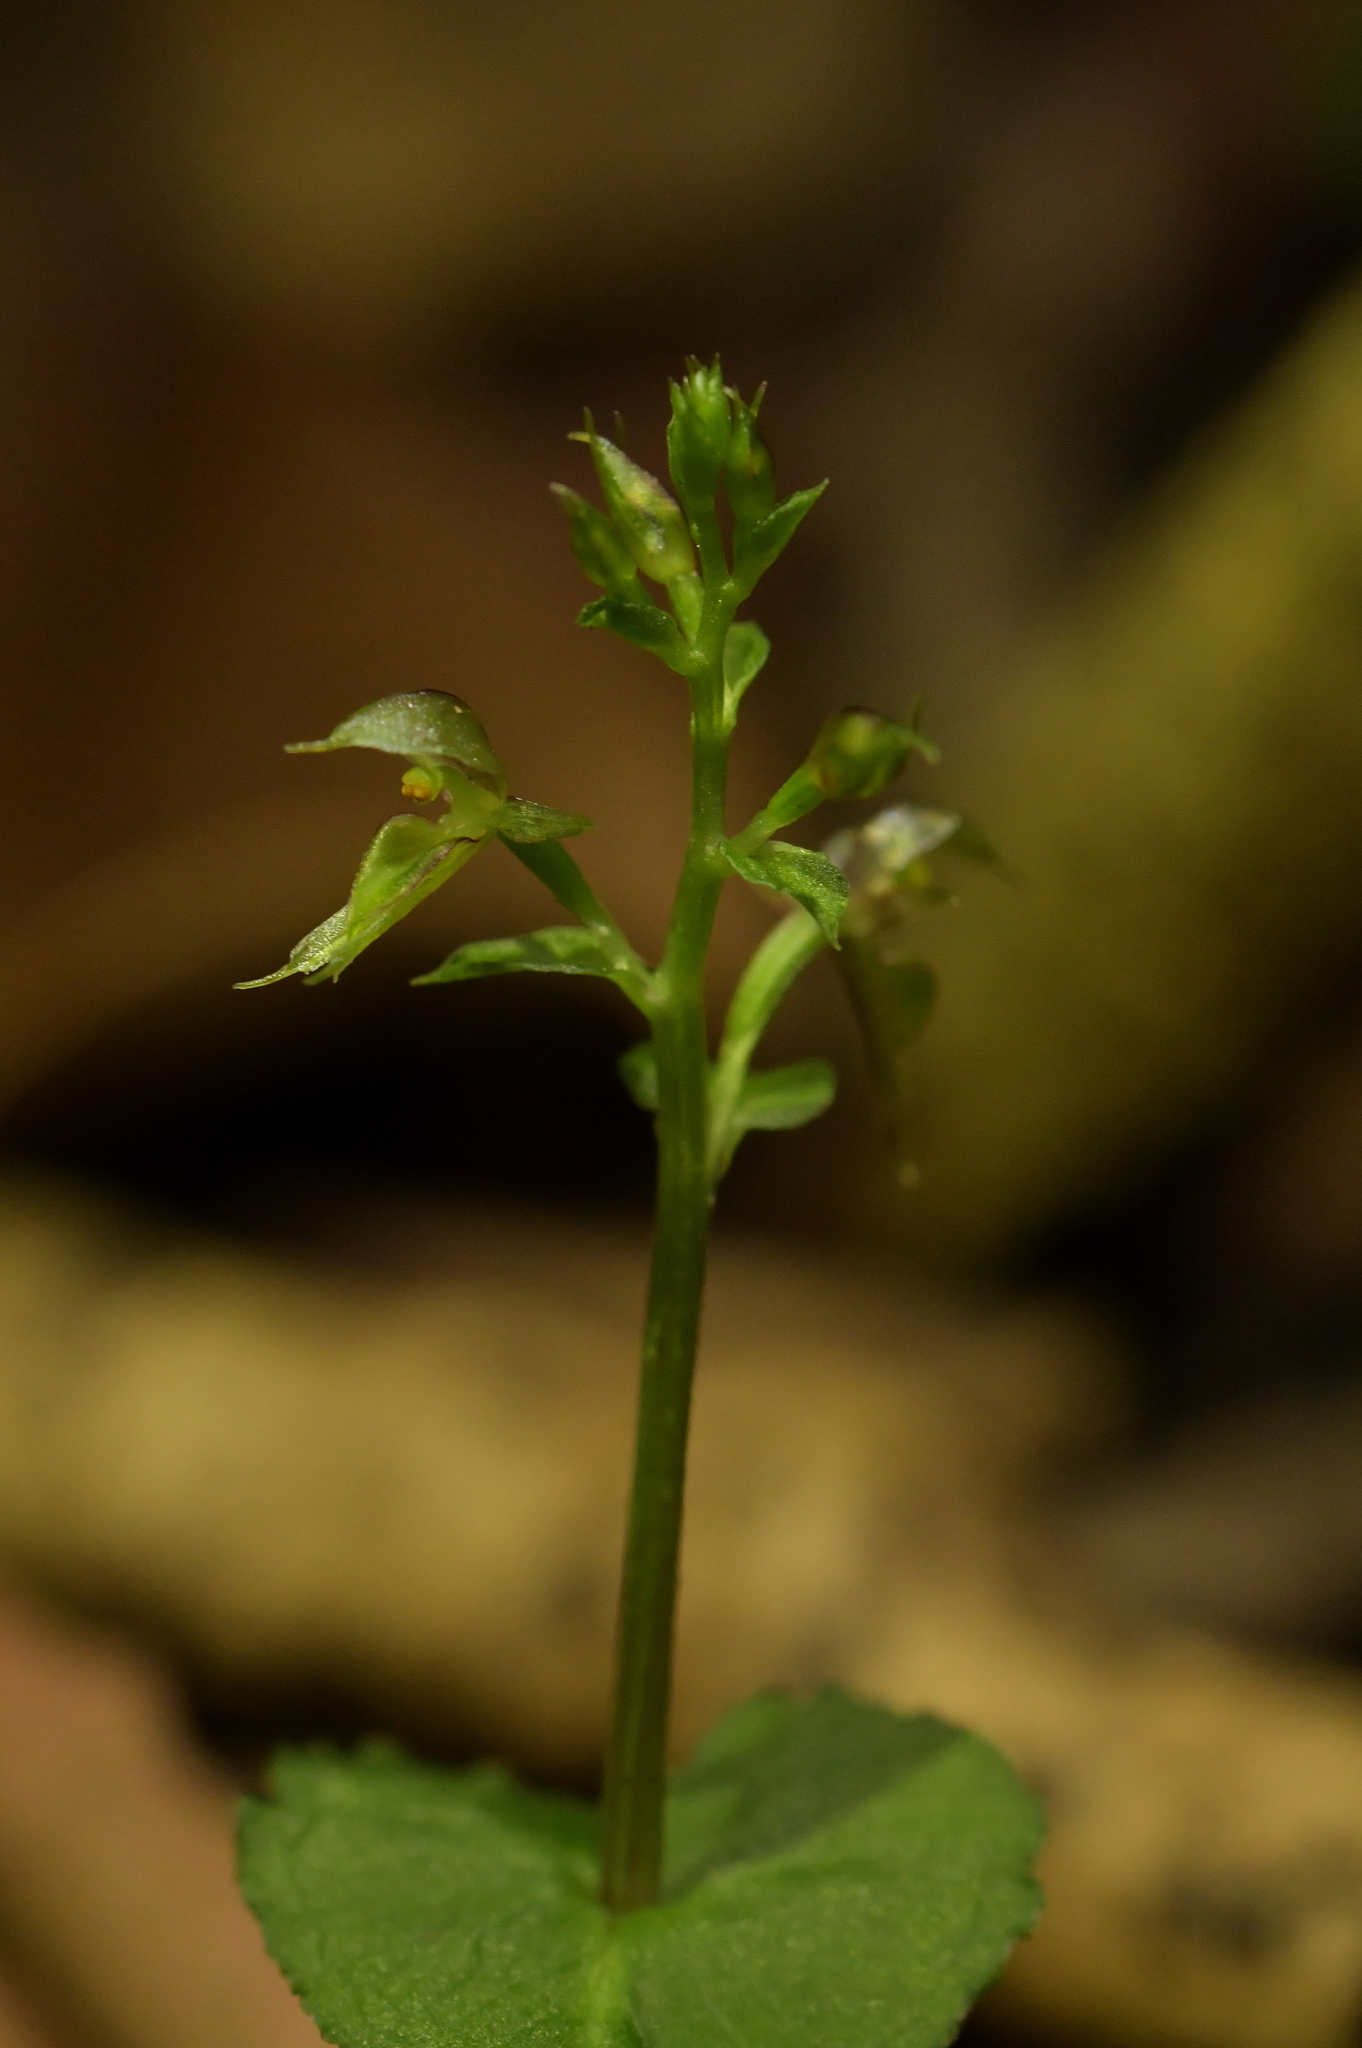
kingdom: Plantae
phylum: Tracheophyta
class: Liliopsida
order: Asparagales
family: Orchidaceae
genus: Acianthus
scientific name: Acianthus sinclairii
